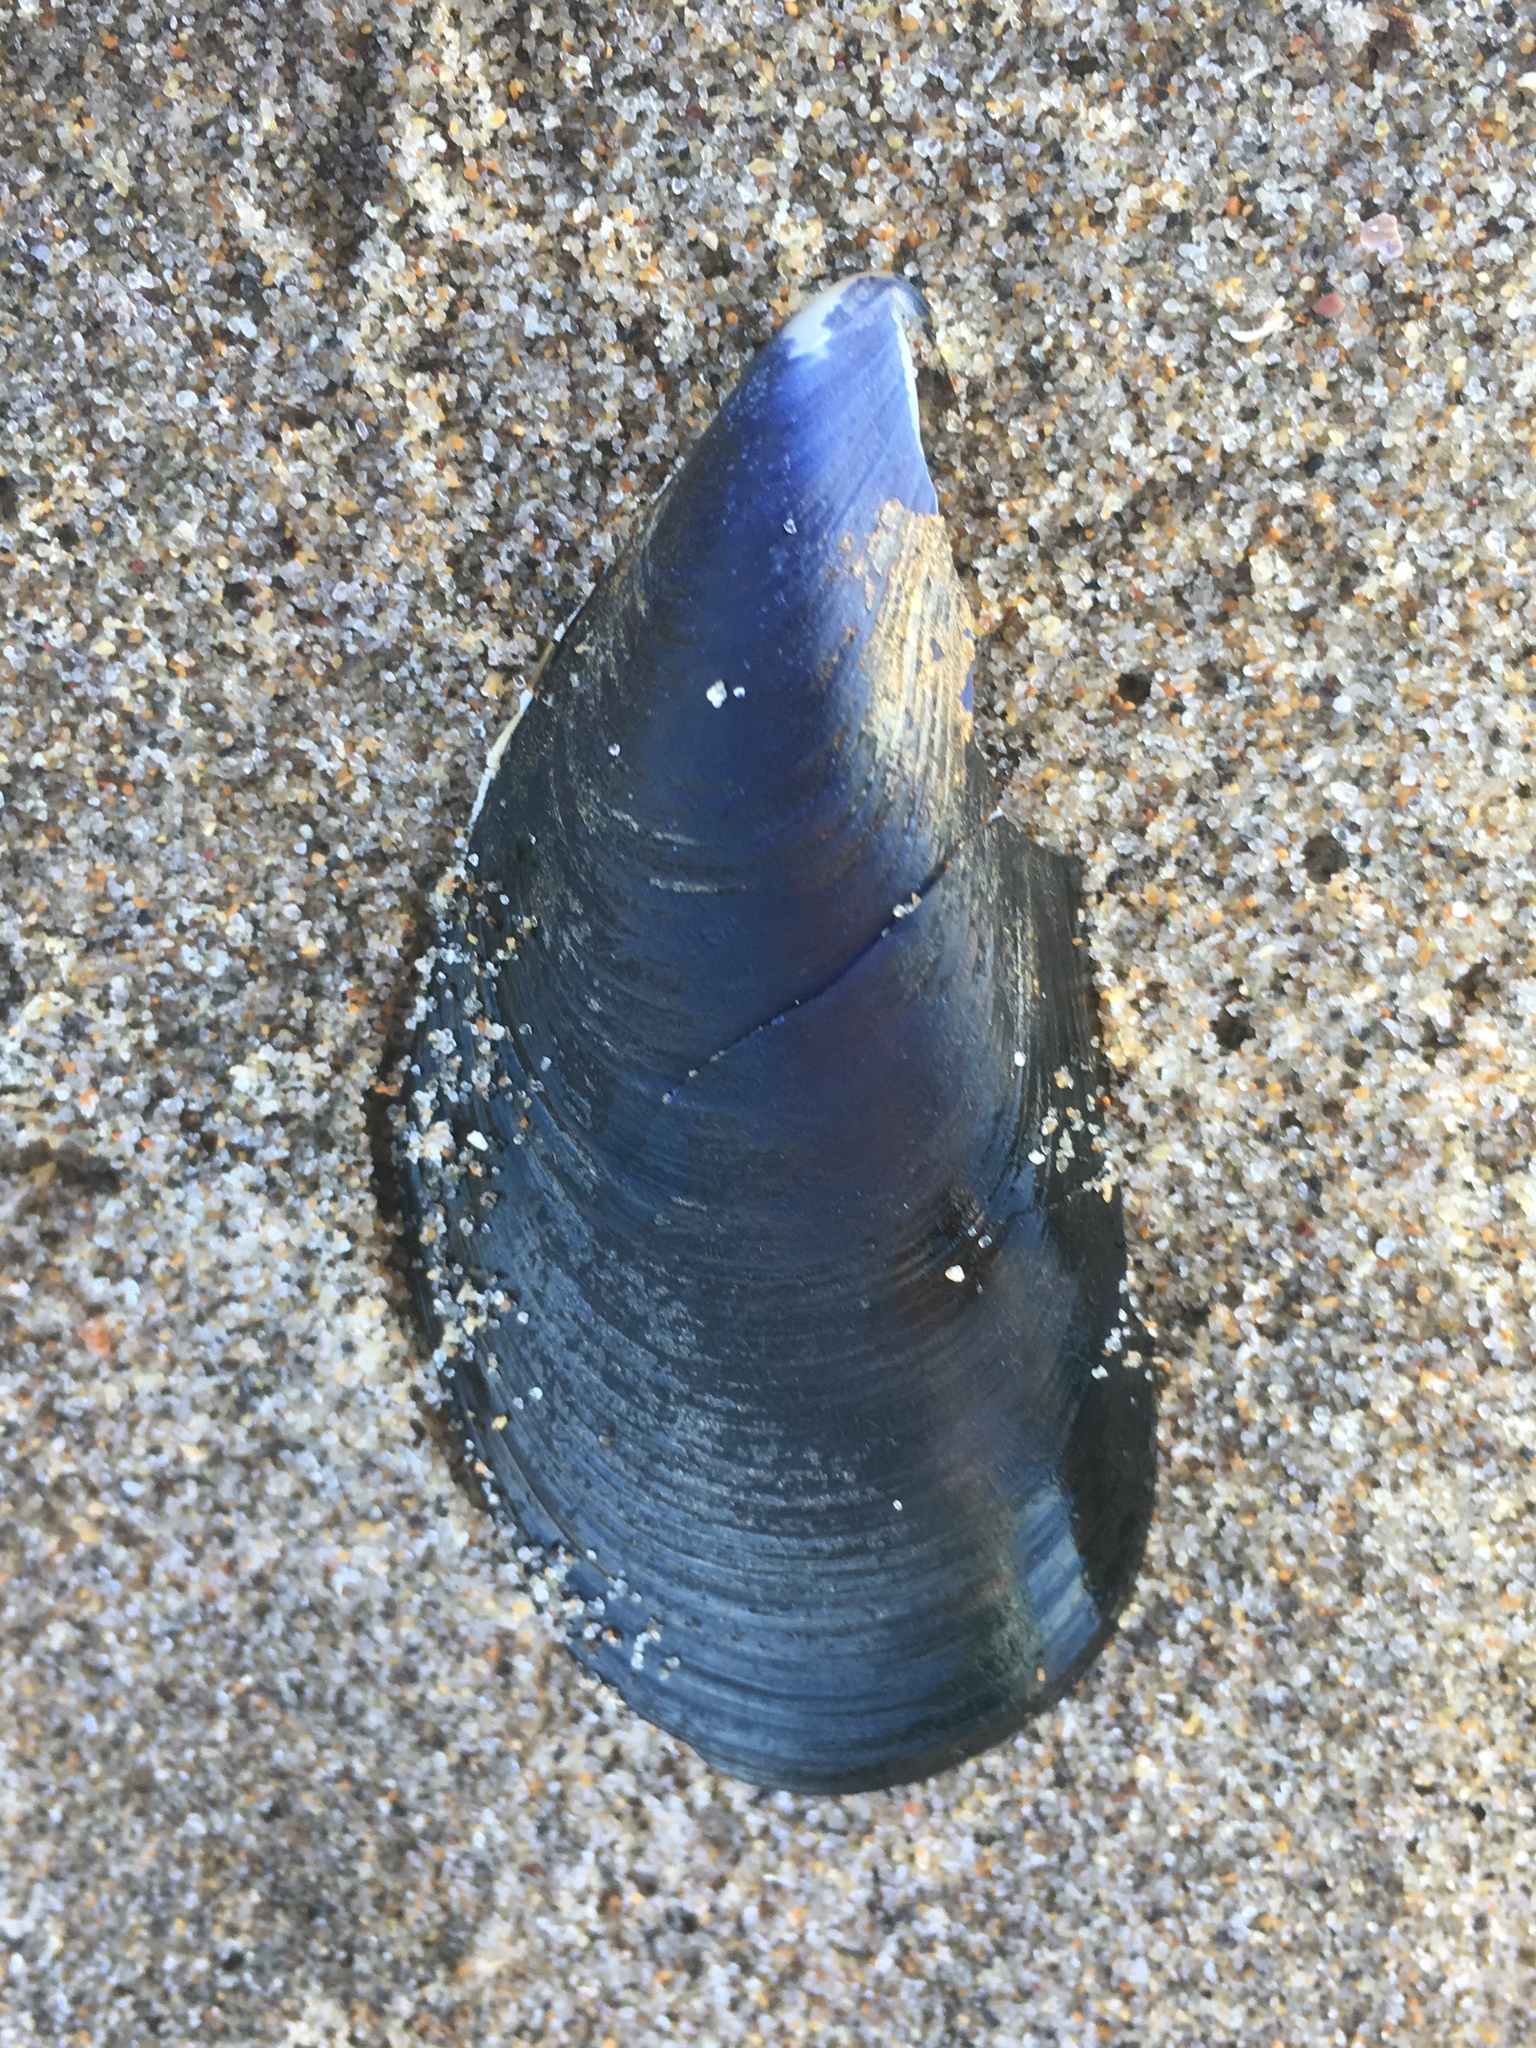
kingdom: Animalia
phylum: Mollusca
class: Bivalvia
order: Mytilida
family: Mytilidae
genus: Mytilus
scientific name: Mytilus
